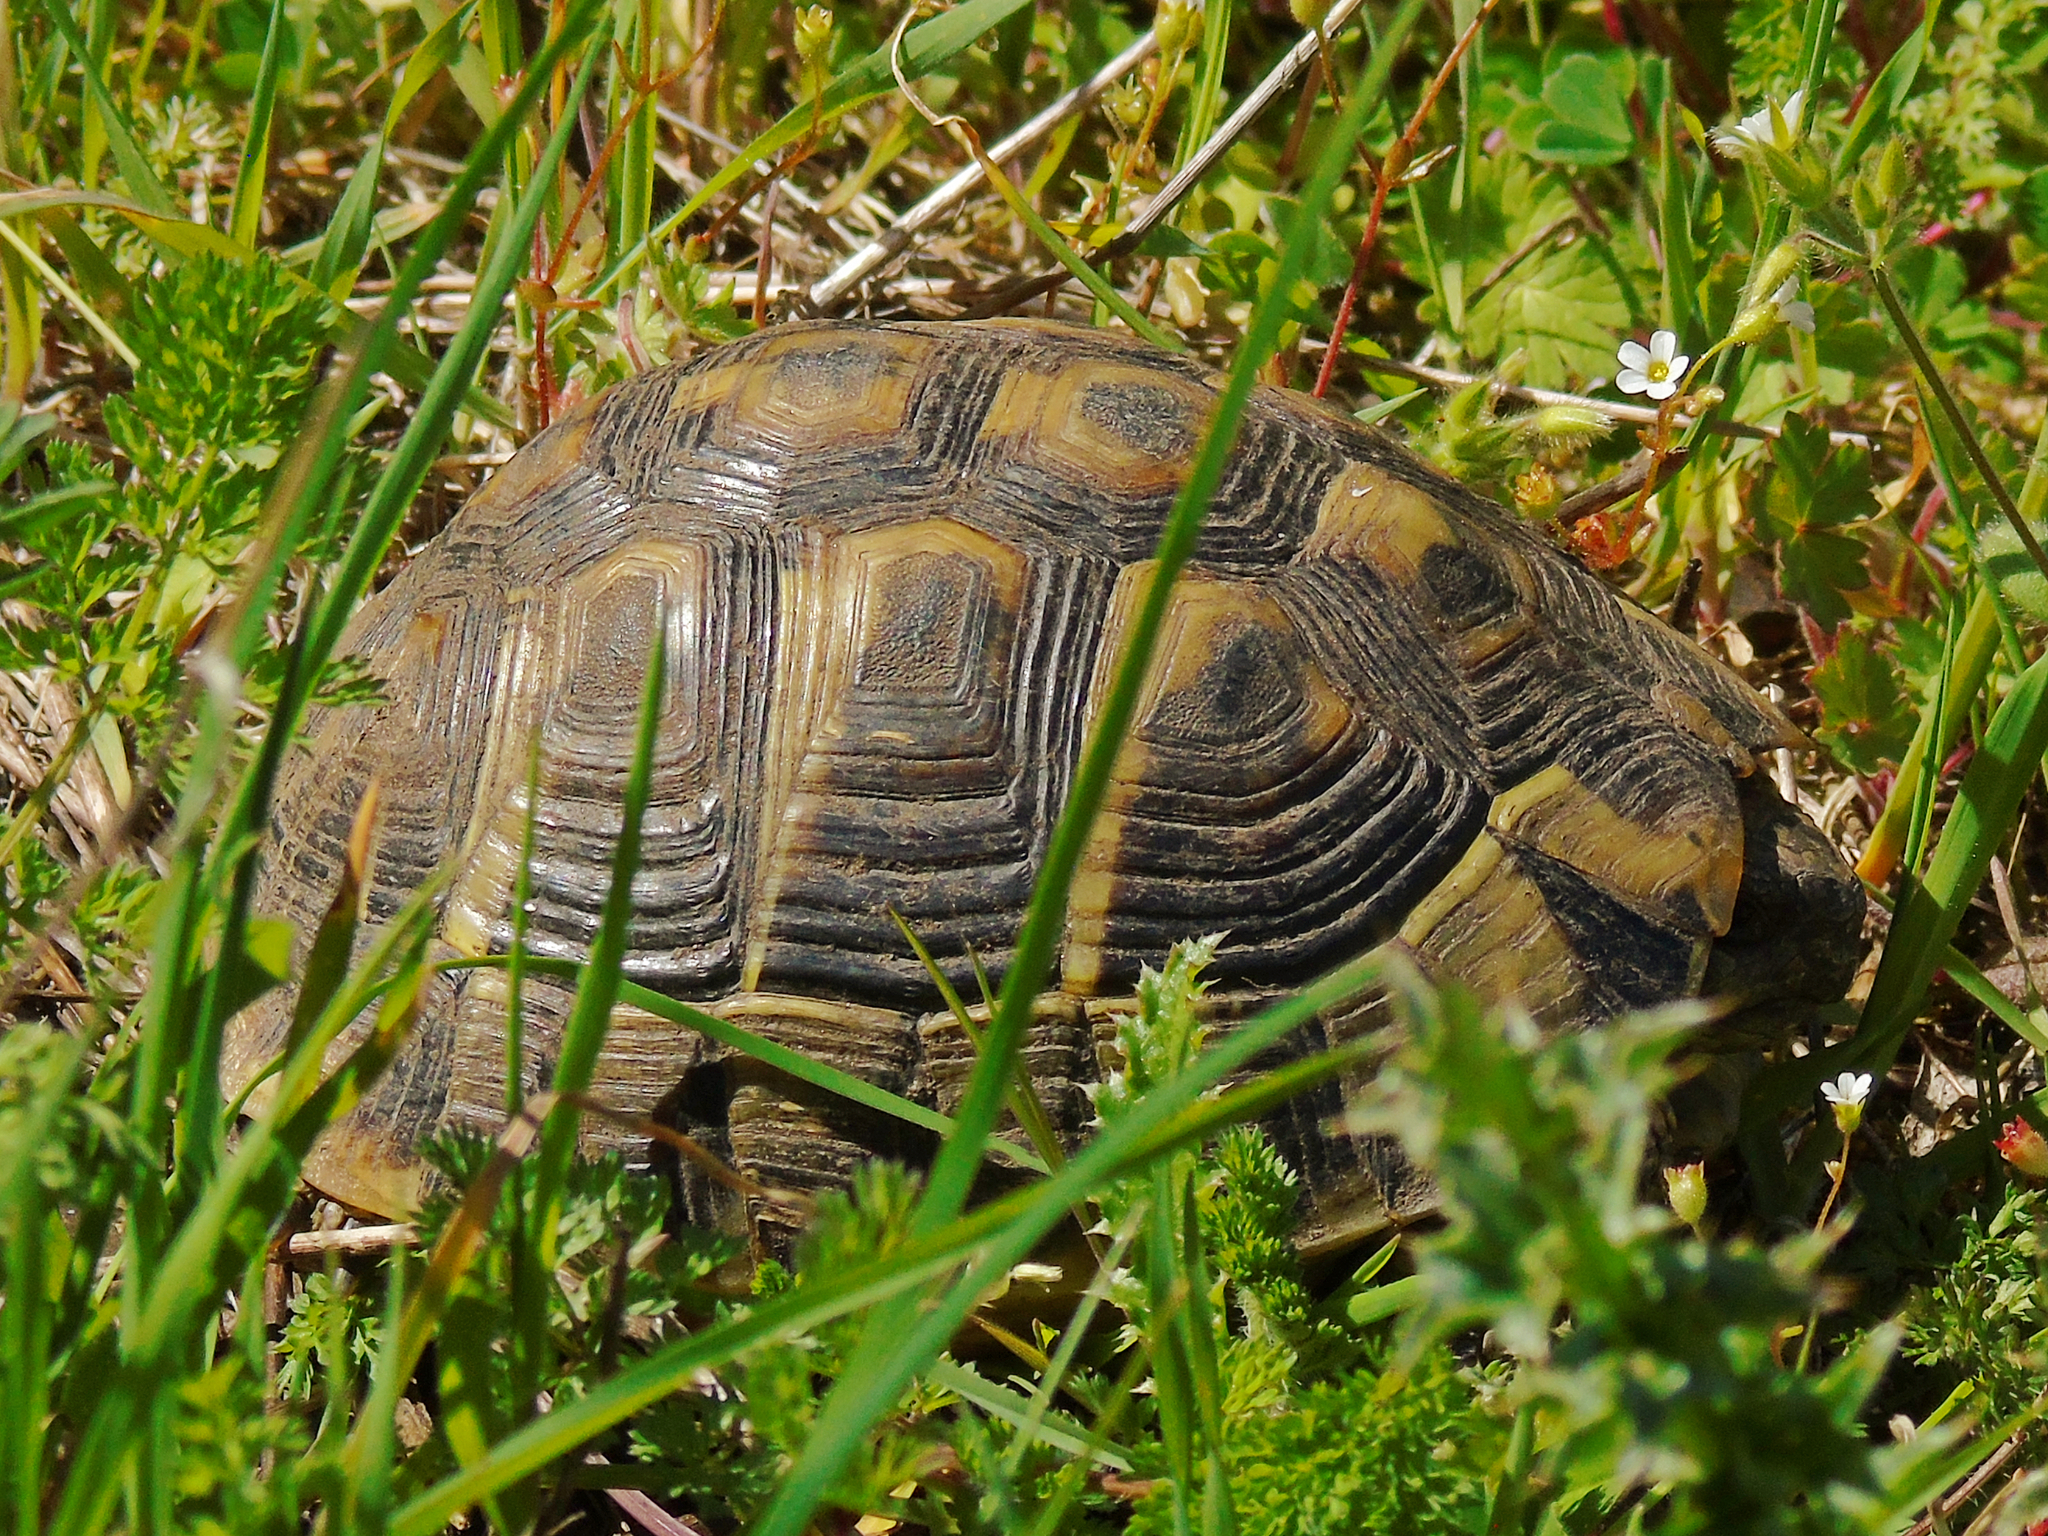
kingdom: Animalia
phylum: Chordata
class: Testudines
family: Testudinidae
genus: Testudo
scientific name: Testudo hermanni
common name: Hermann's tortoise
